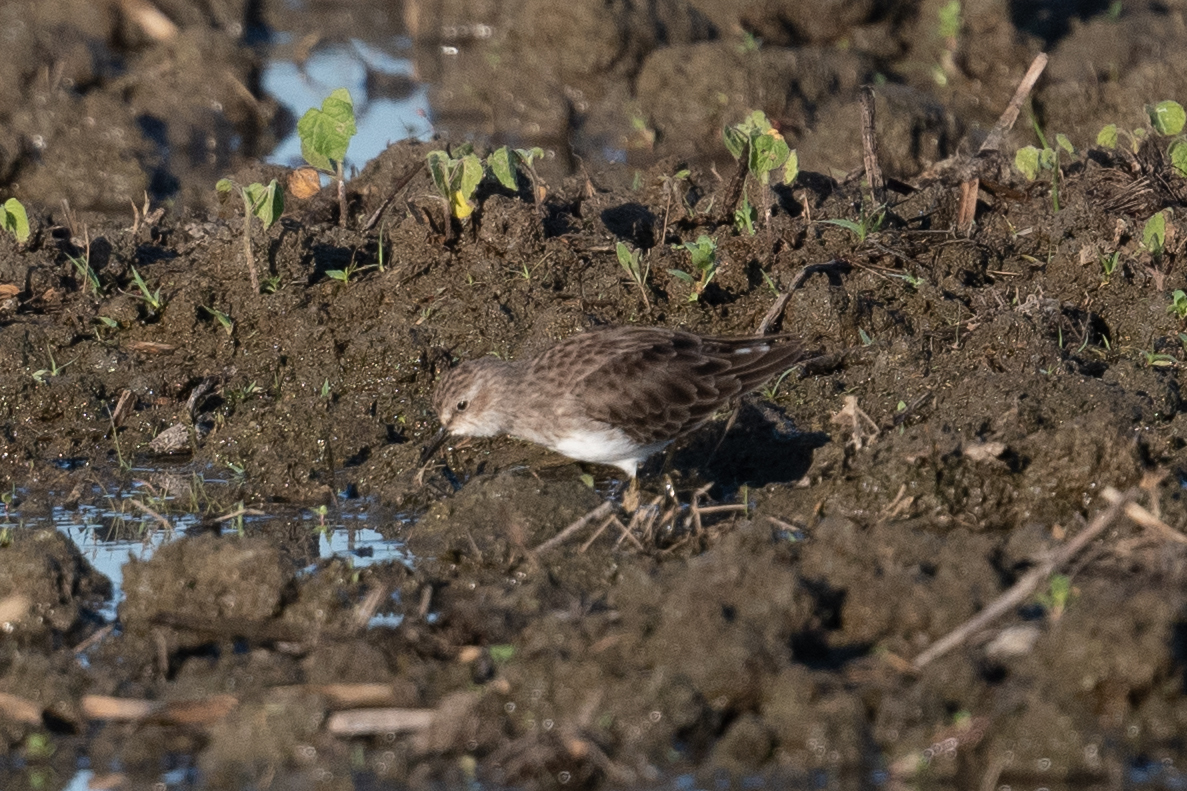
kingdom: Animalia
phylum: Chordata
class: Aves
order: Charadriiformes
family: Scolopacidae
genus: Calidris
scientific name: Calidris minutilla
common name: Least sandpiper
